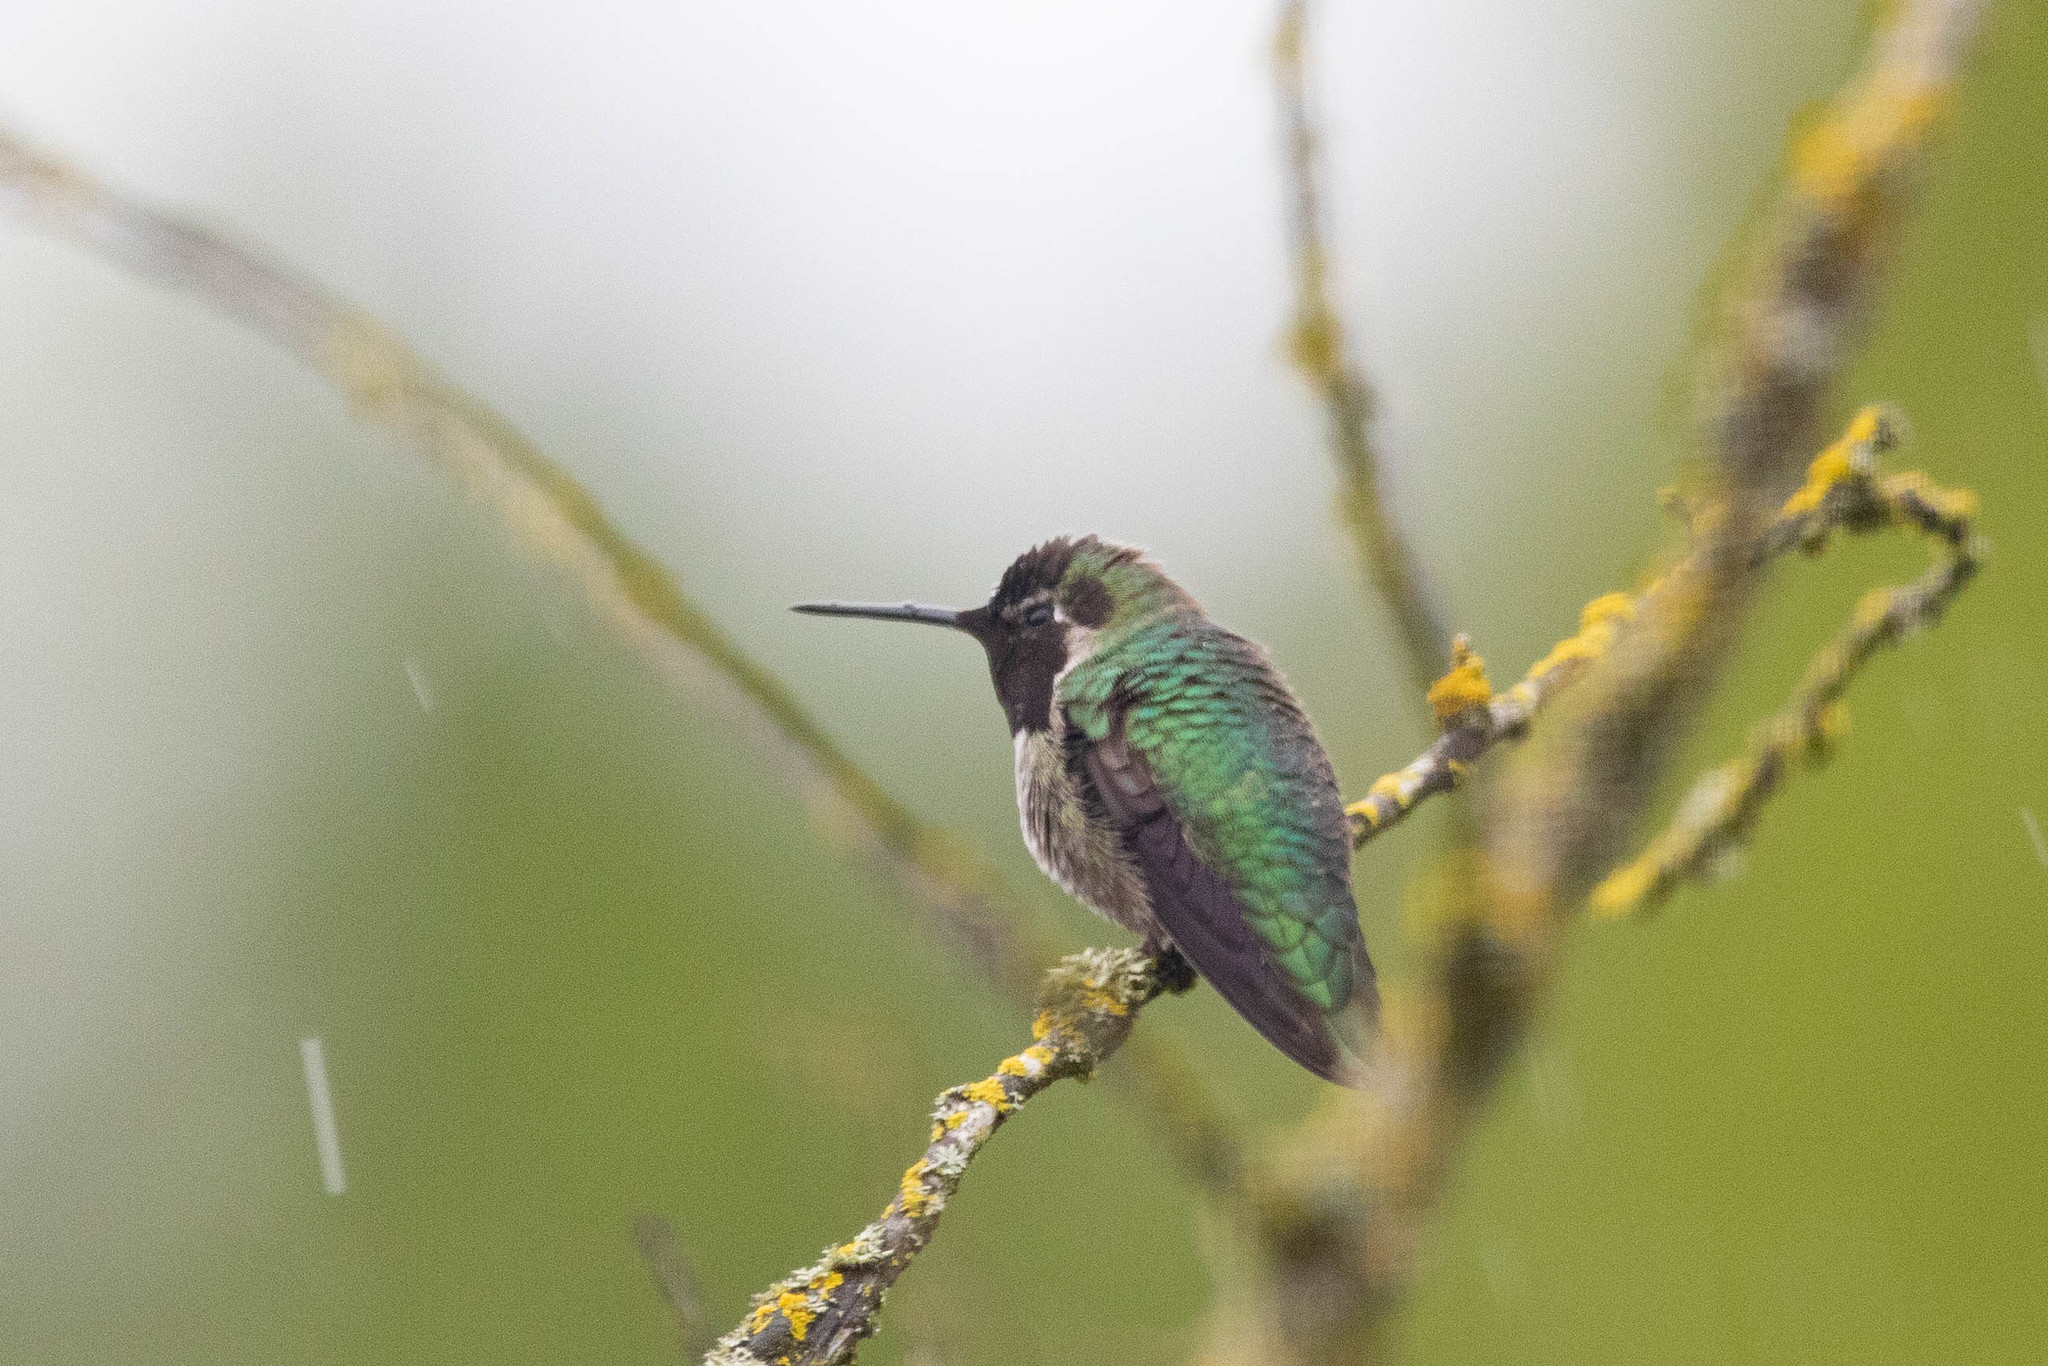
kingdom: Animalia
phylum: Chordata
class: Aves
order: Apodiformes
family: Trochilidae
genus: Calypte
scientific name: Calypte anna
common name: Anna's hummingbird
